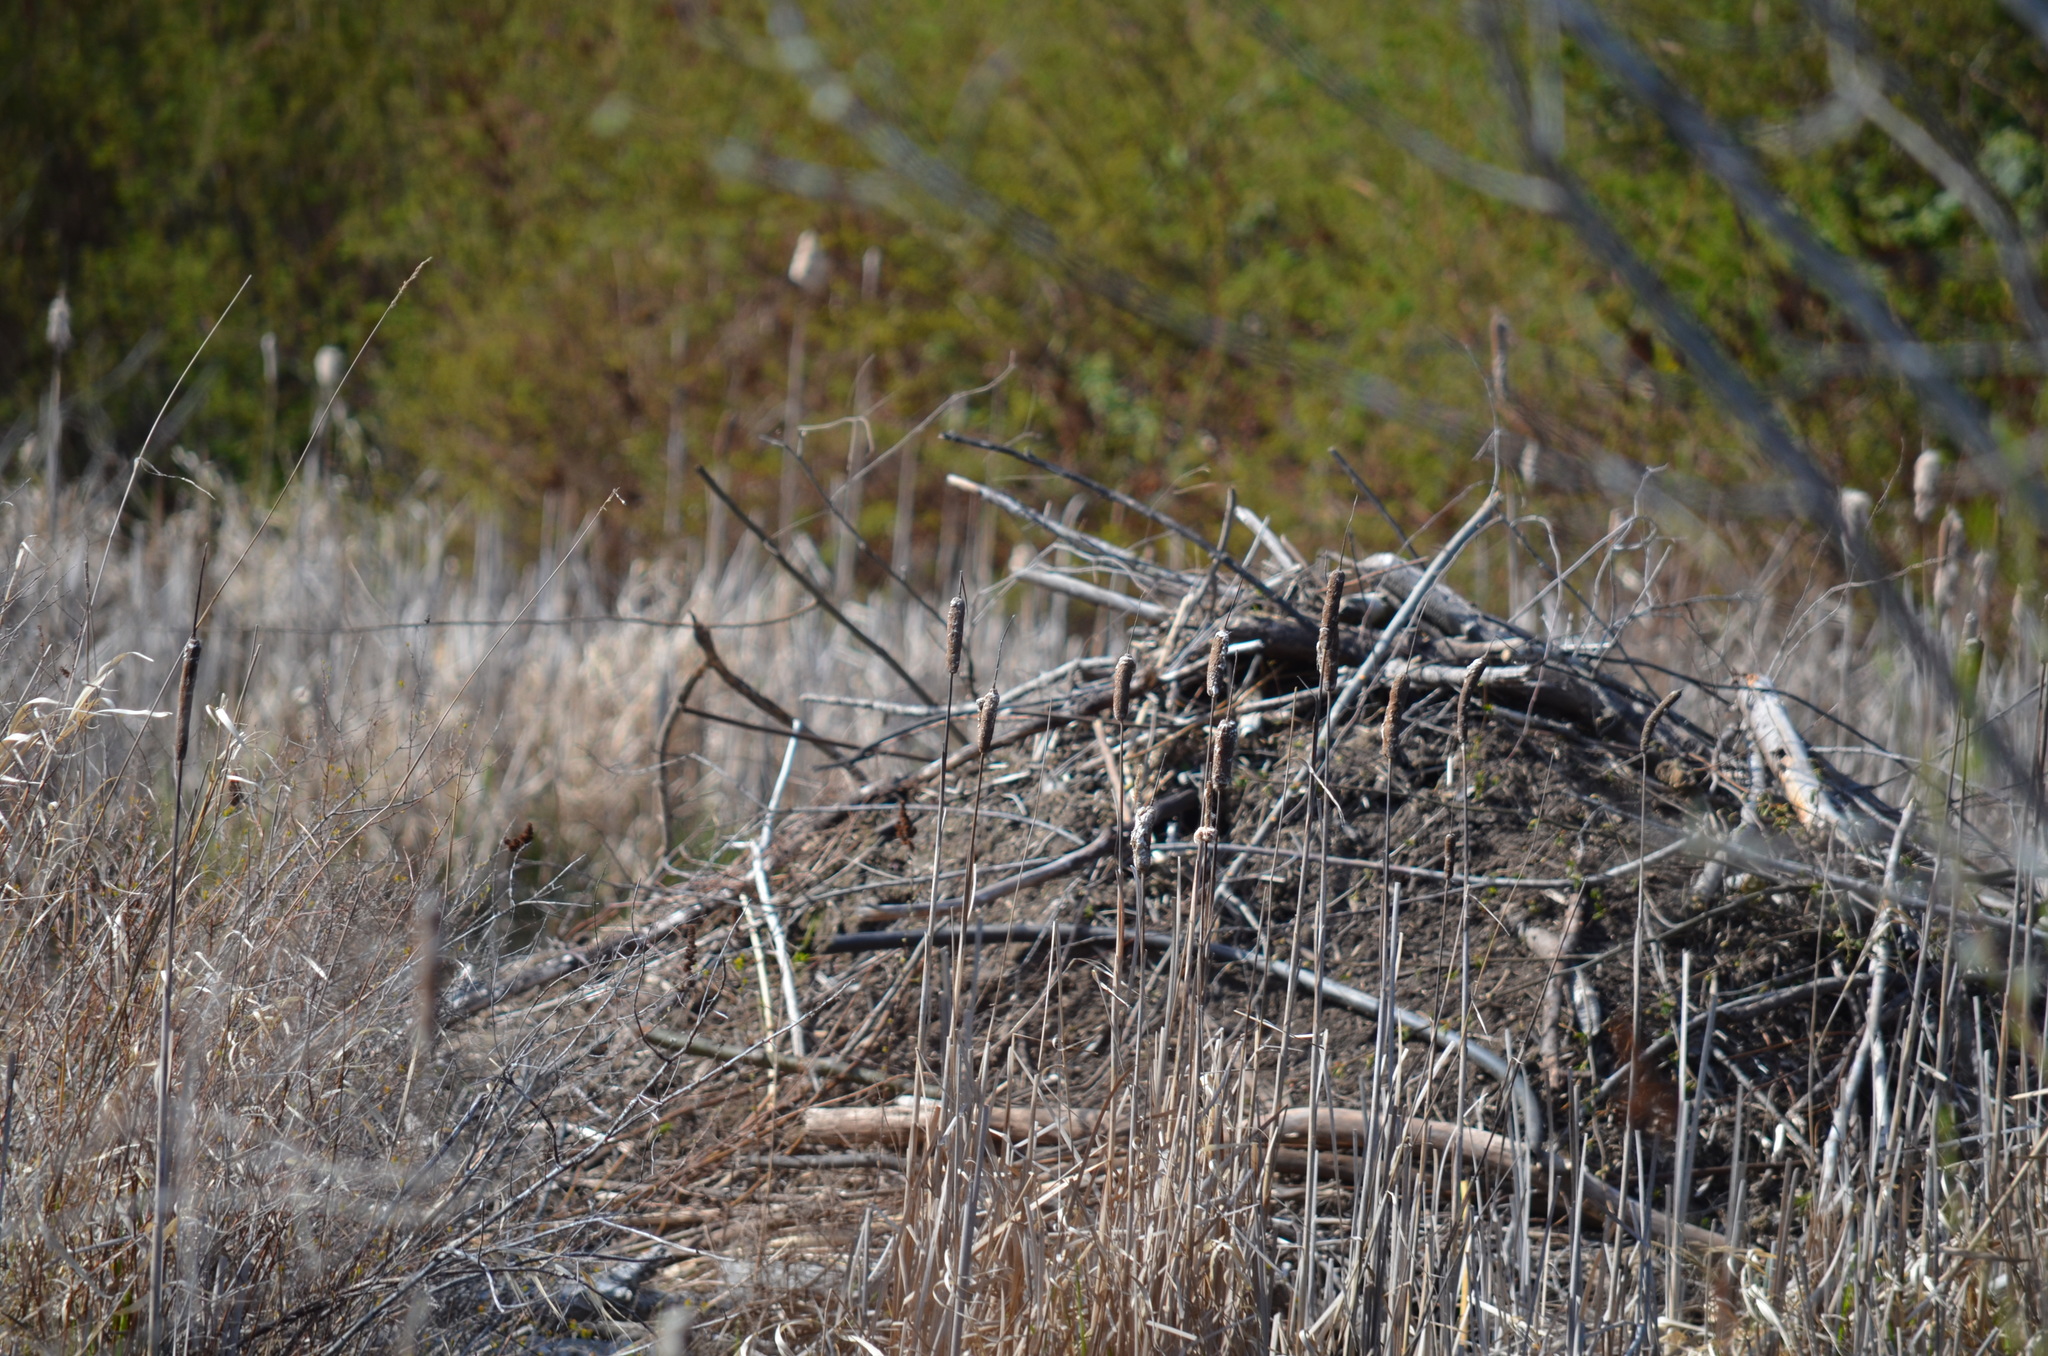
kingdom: Animalia
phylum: Chordata
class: Mammalia
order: Rodentia
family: Castoridae
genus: Castor
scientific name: Castor canadensis
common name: American beaver
